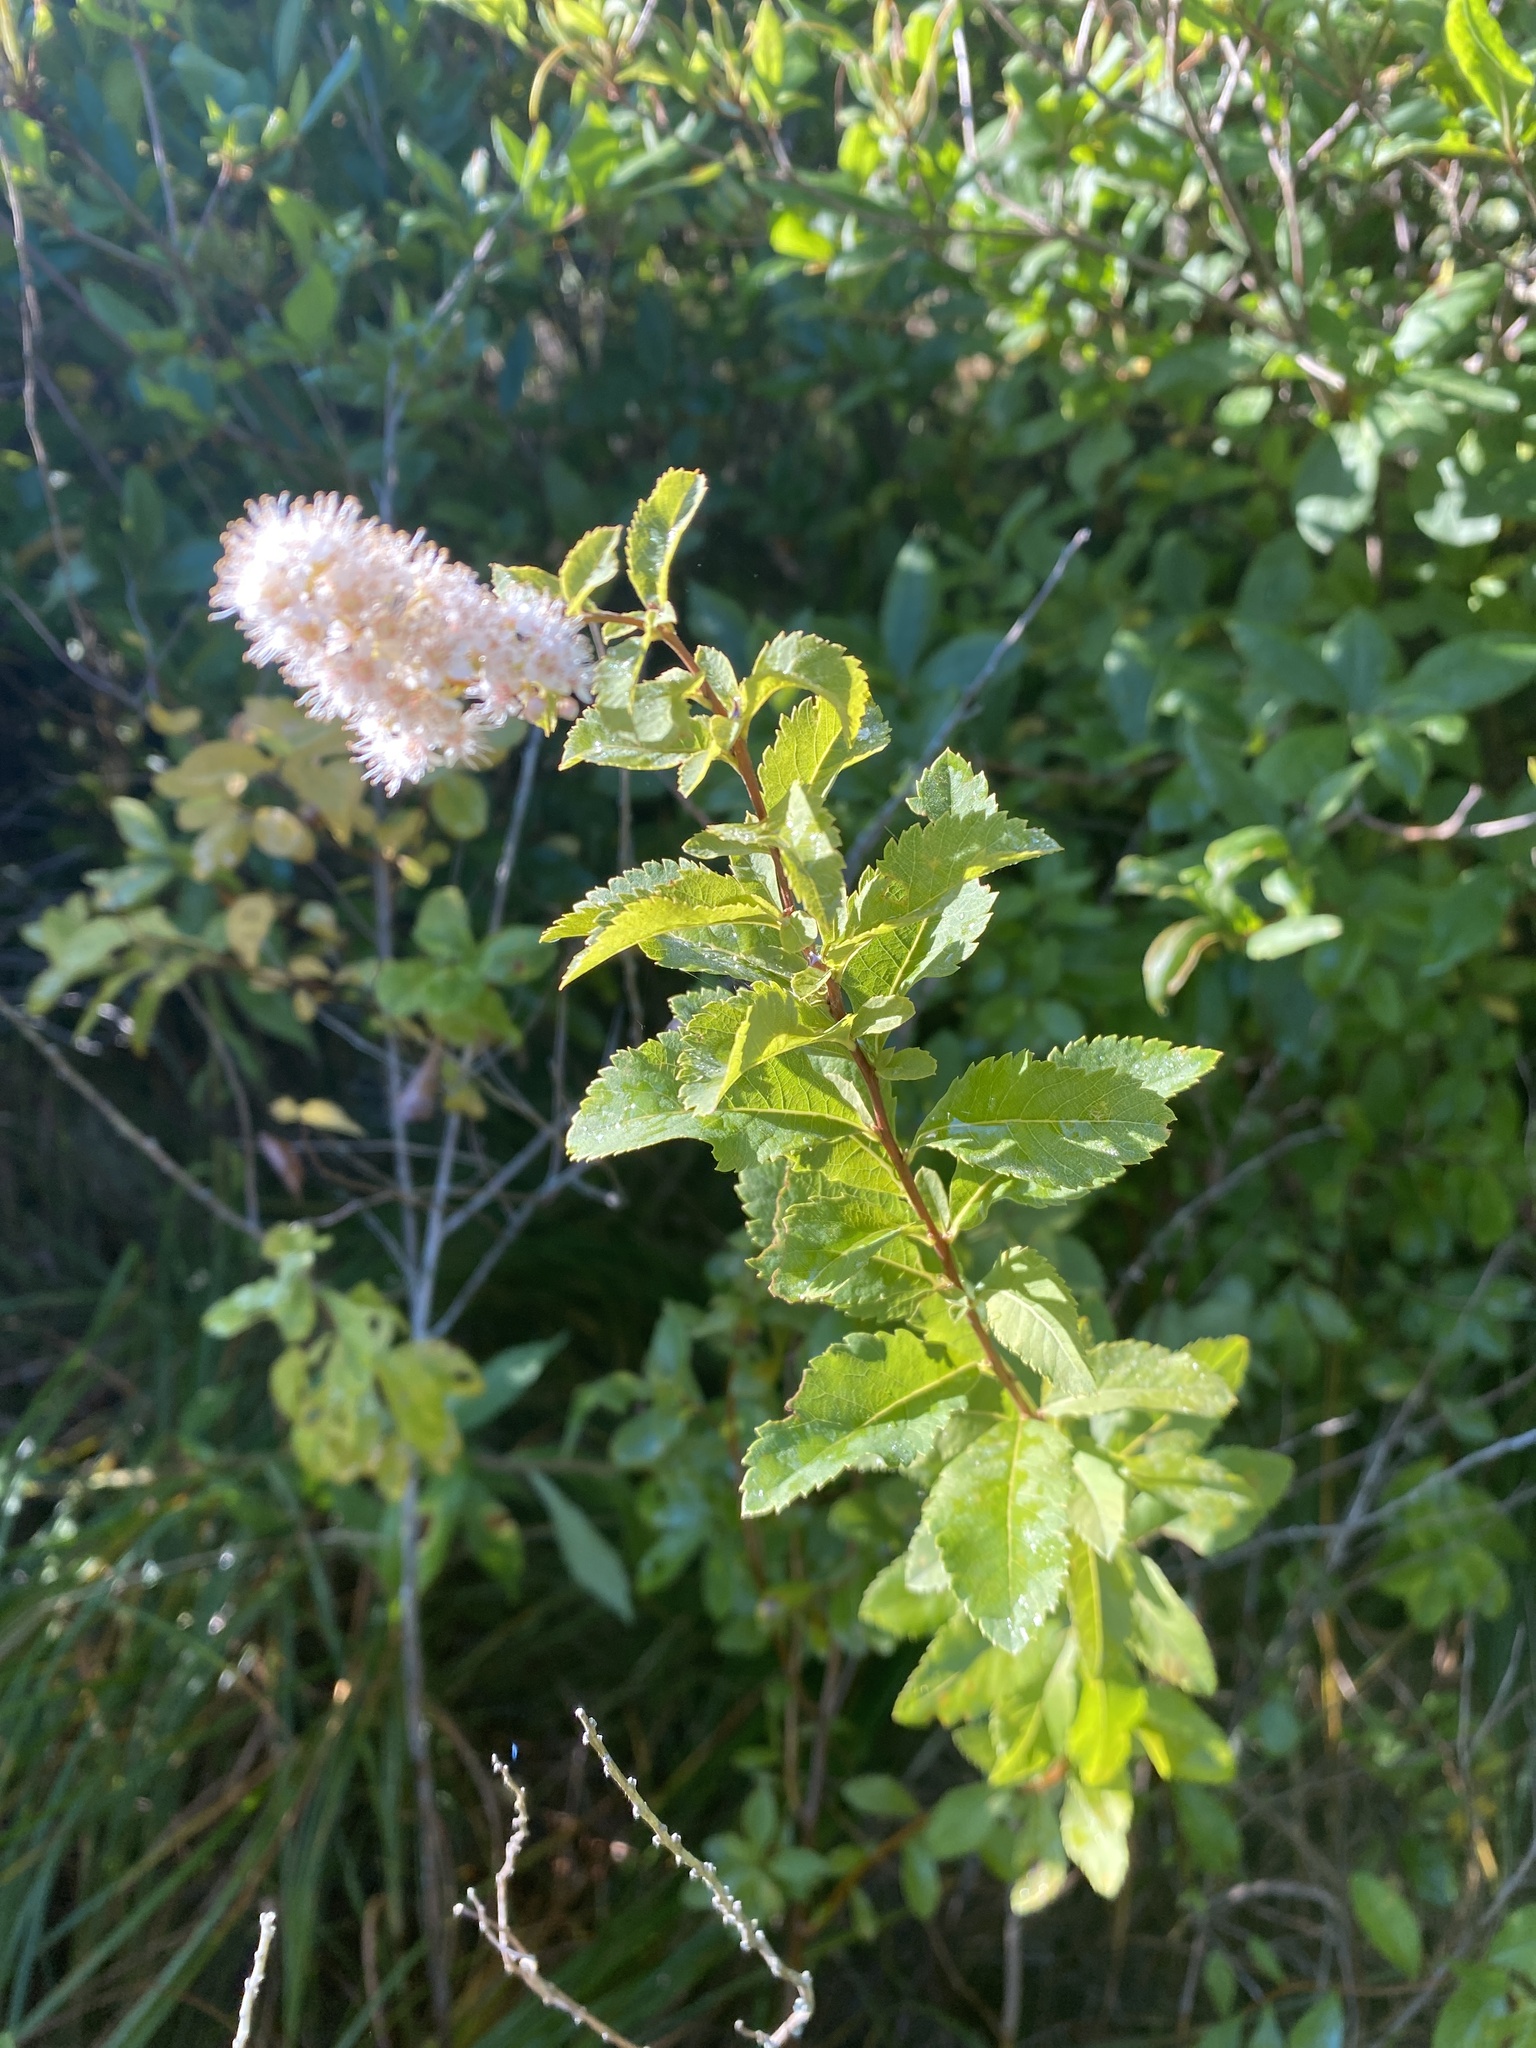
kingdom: Plantae
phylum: Tracheophyta
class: Magnoliopsida
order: Rosales
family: Rosaceae
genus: Spiraea
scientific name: Spiraea alba
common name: Pale bridewort
